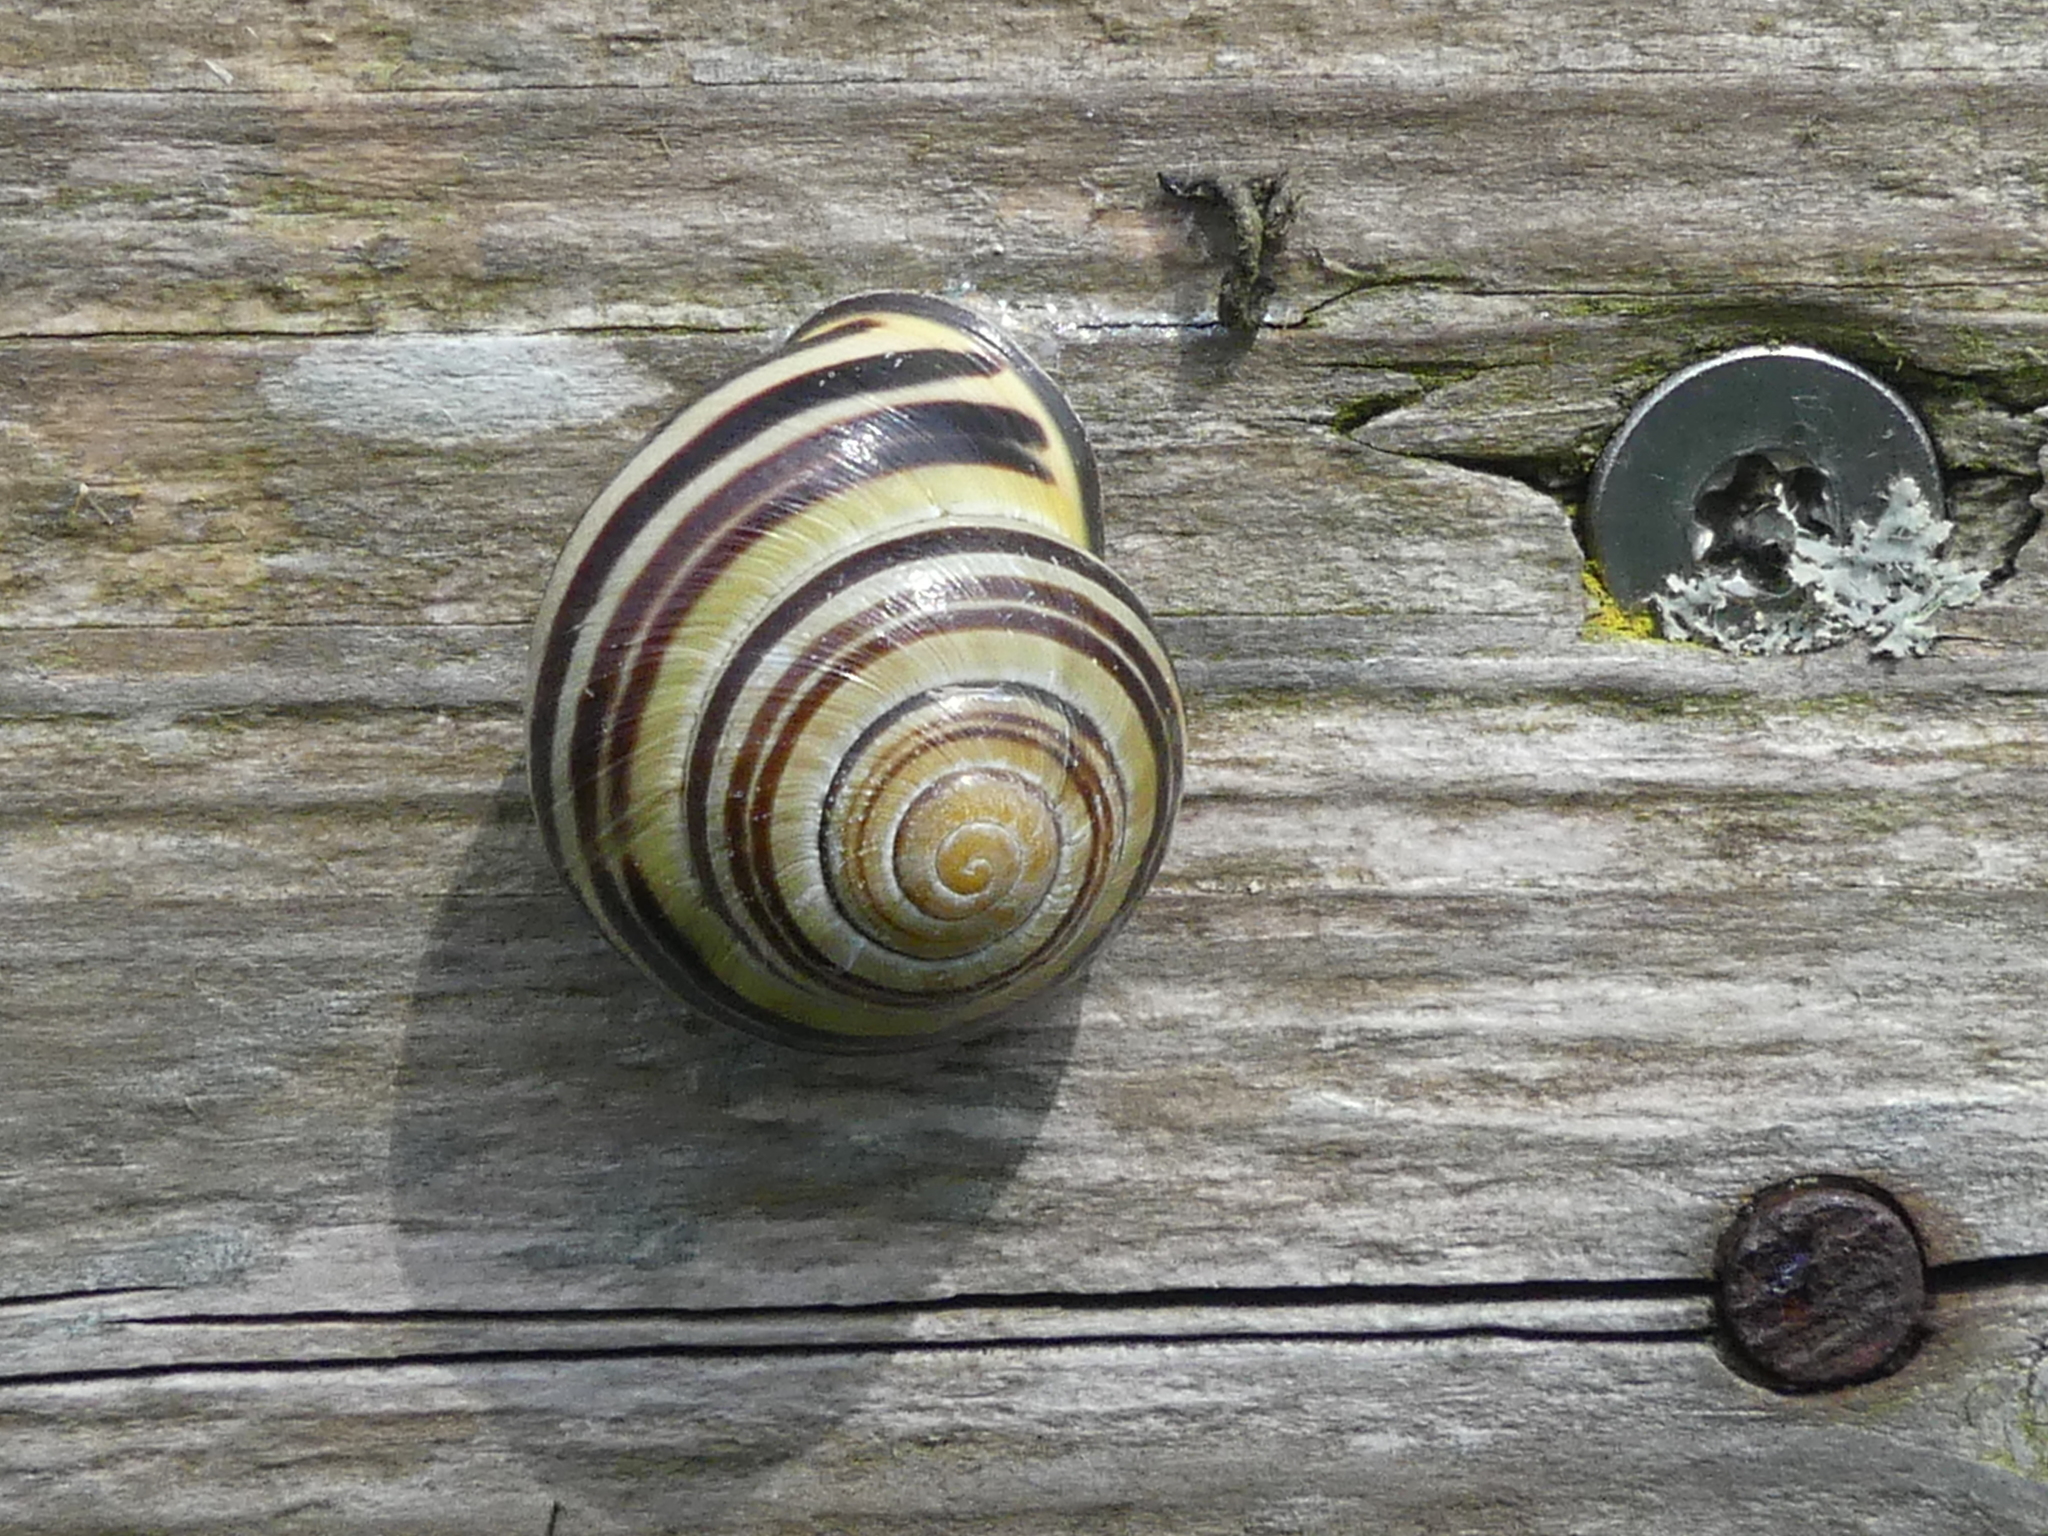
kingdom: Animalia
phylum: Mollusca
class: Gastropoda
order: Stylommatophora
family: Helicidae
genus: Cepaea
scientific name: Cepaea nemoralis
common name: Grovesnail
